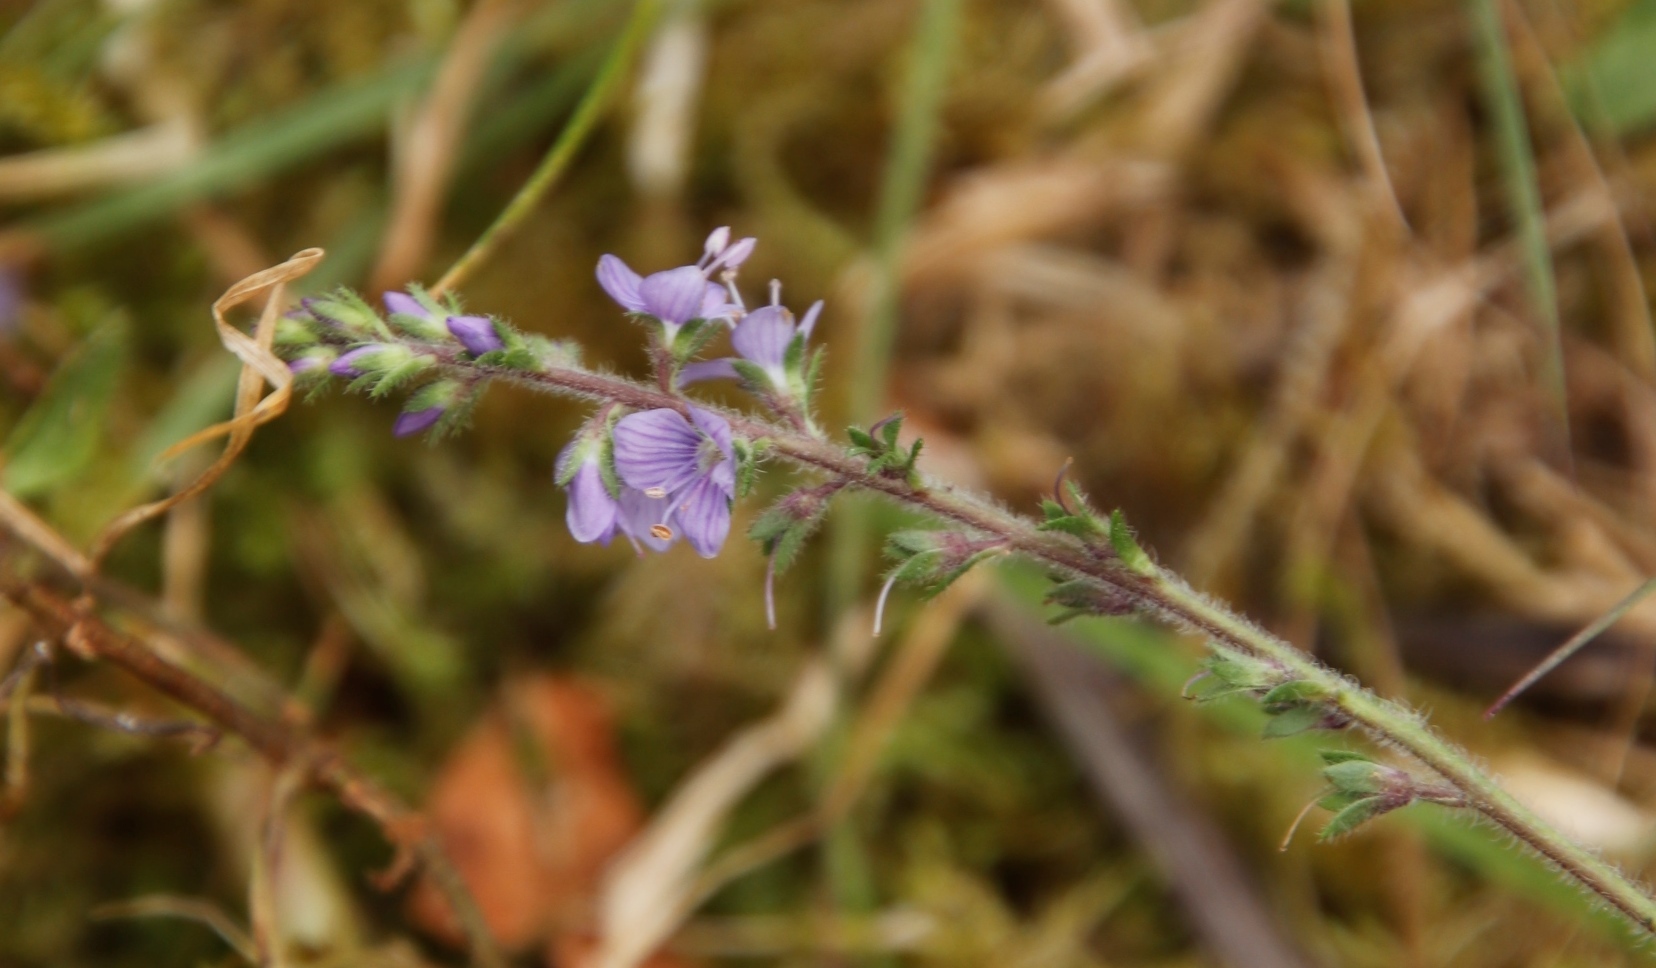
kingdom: Plantae
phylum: Tracheophyta
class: Magnoliopsida
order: Lamiales
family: Plantaginaceae
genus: Veronica
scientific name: Veronica officinalis
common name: Common speedwell
